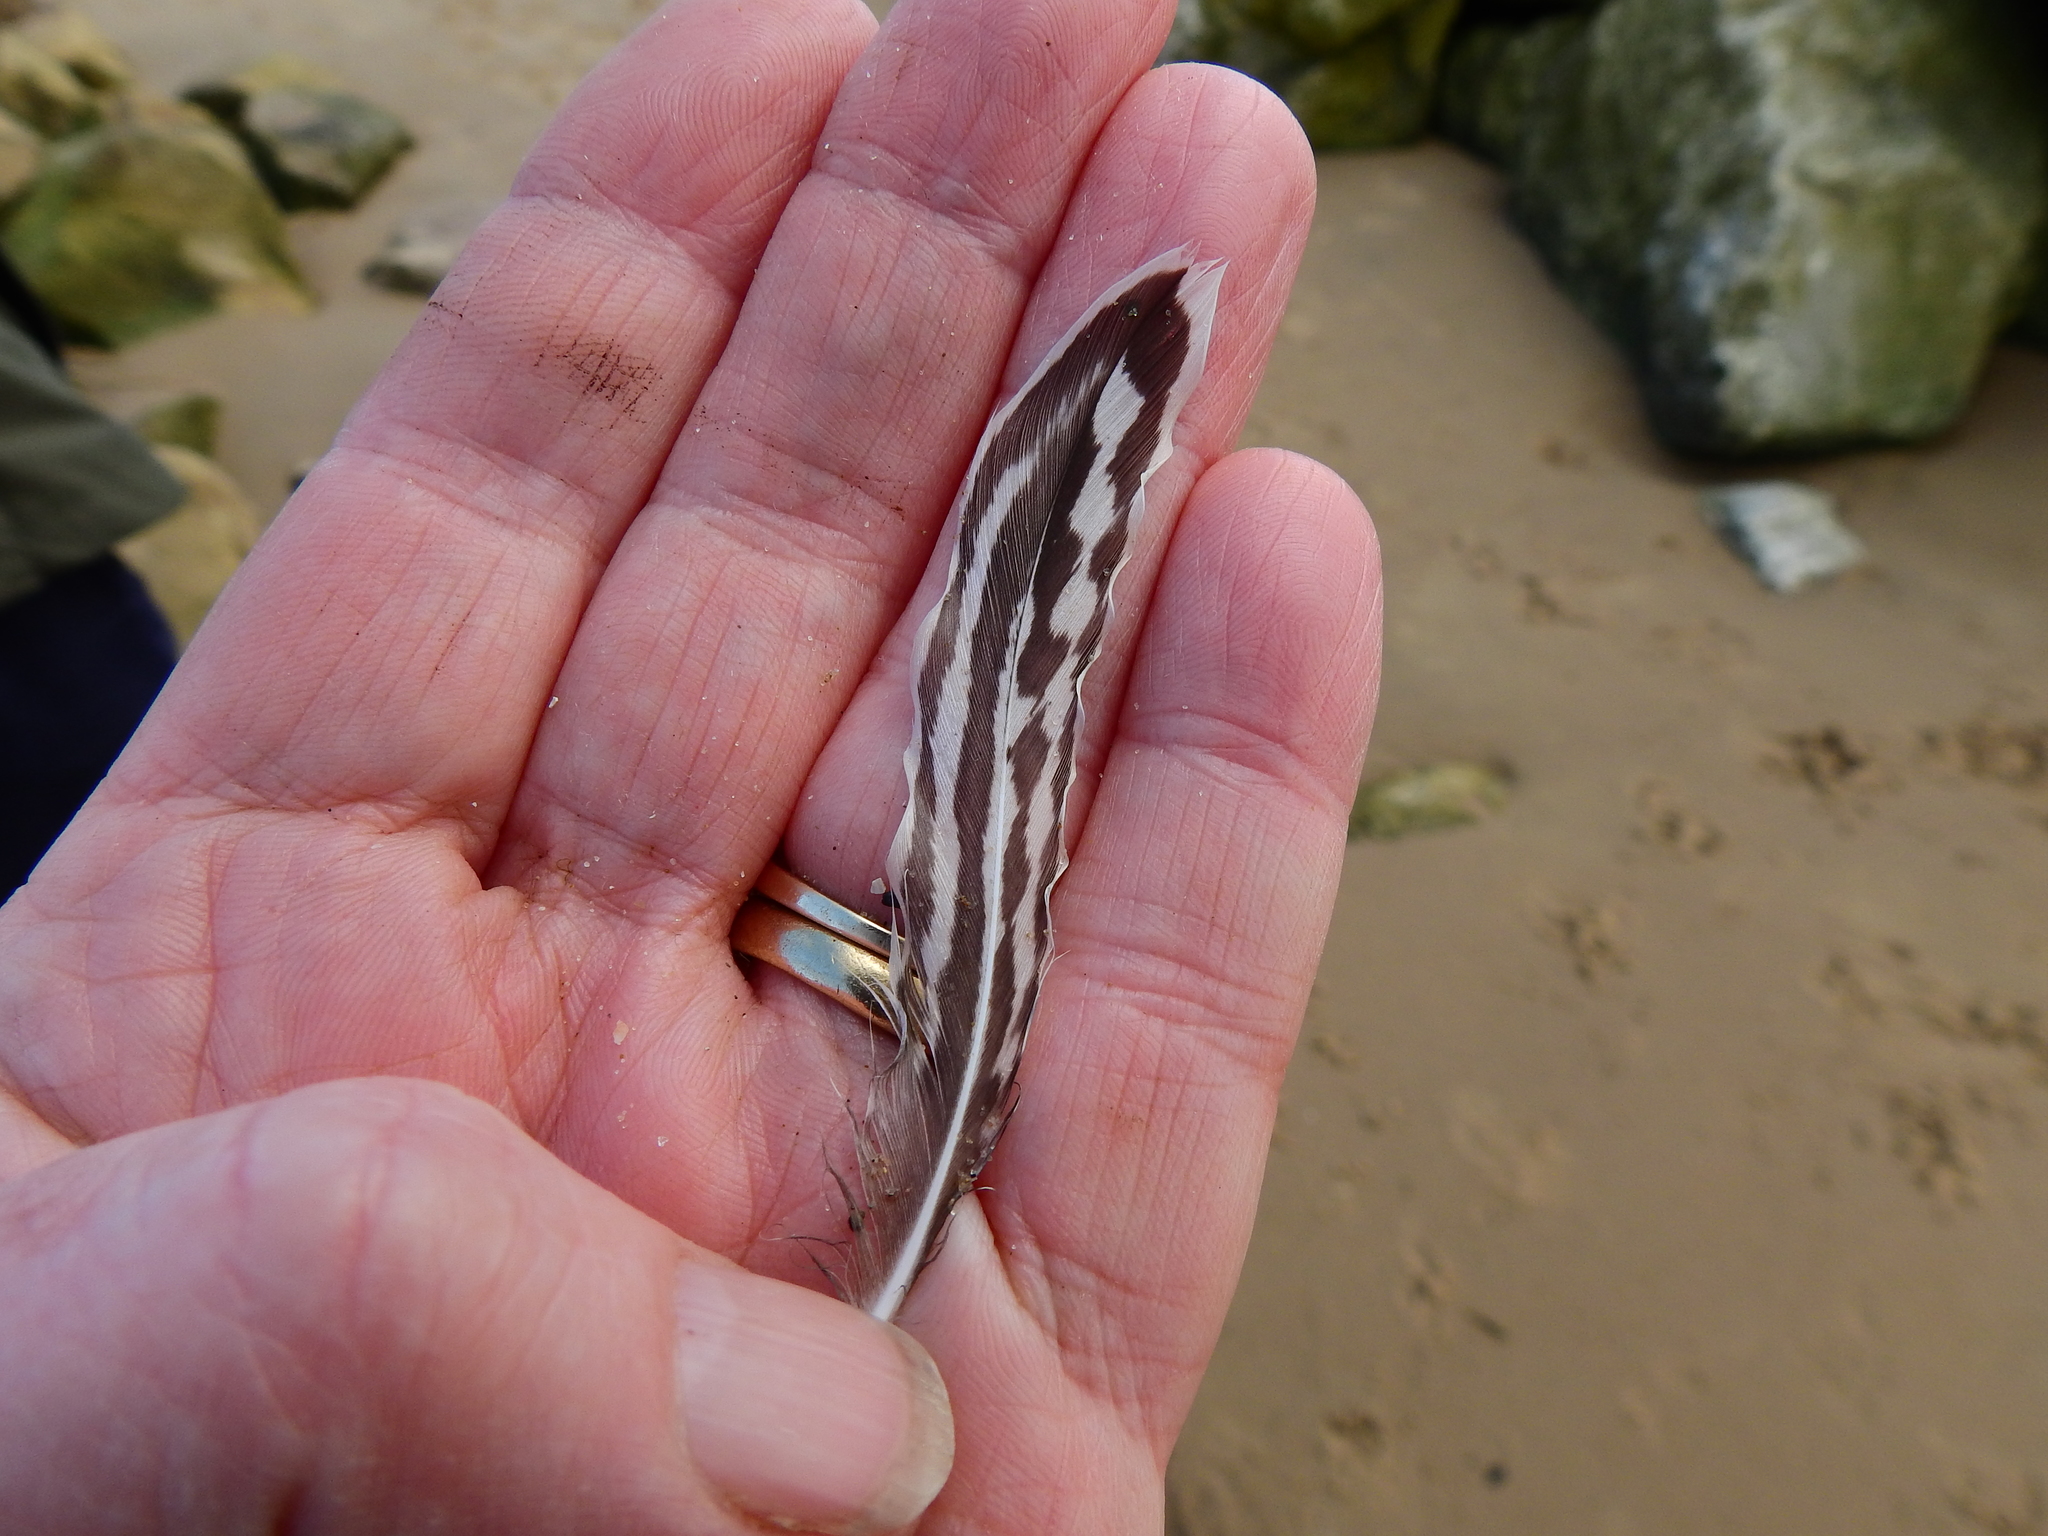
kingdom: Animalia
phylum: Chordata
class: Aves
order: Charadriiformes
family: Scolopacidae
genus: Limosa
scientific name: Limosa lapponica
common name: Bar-tailed godwit
